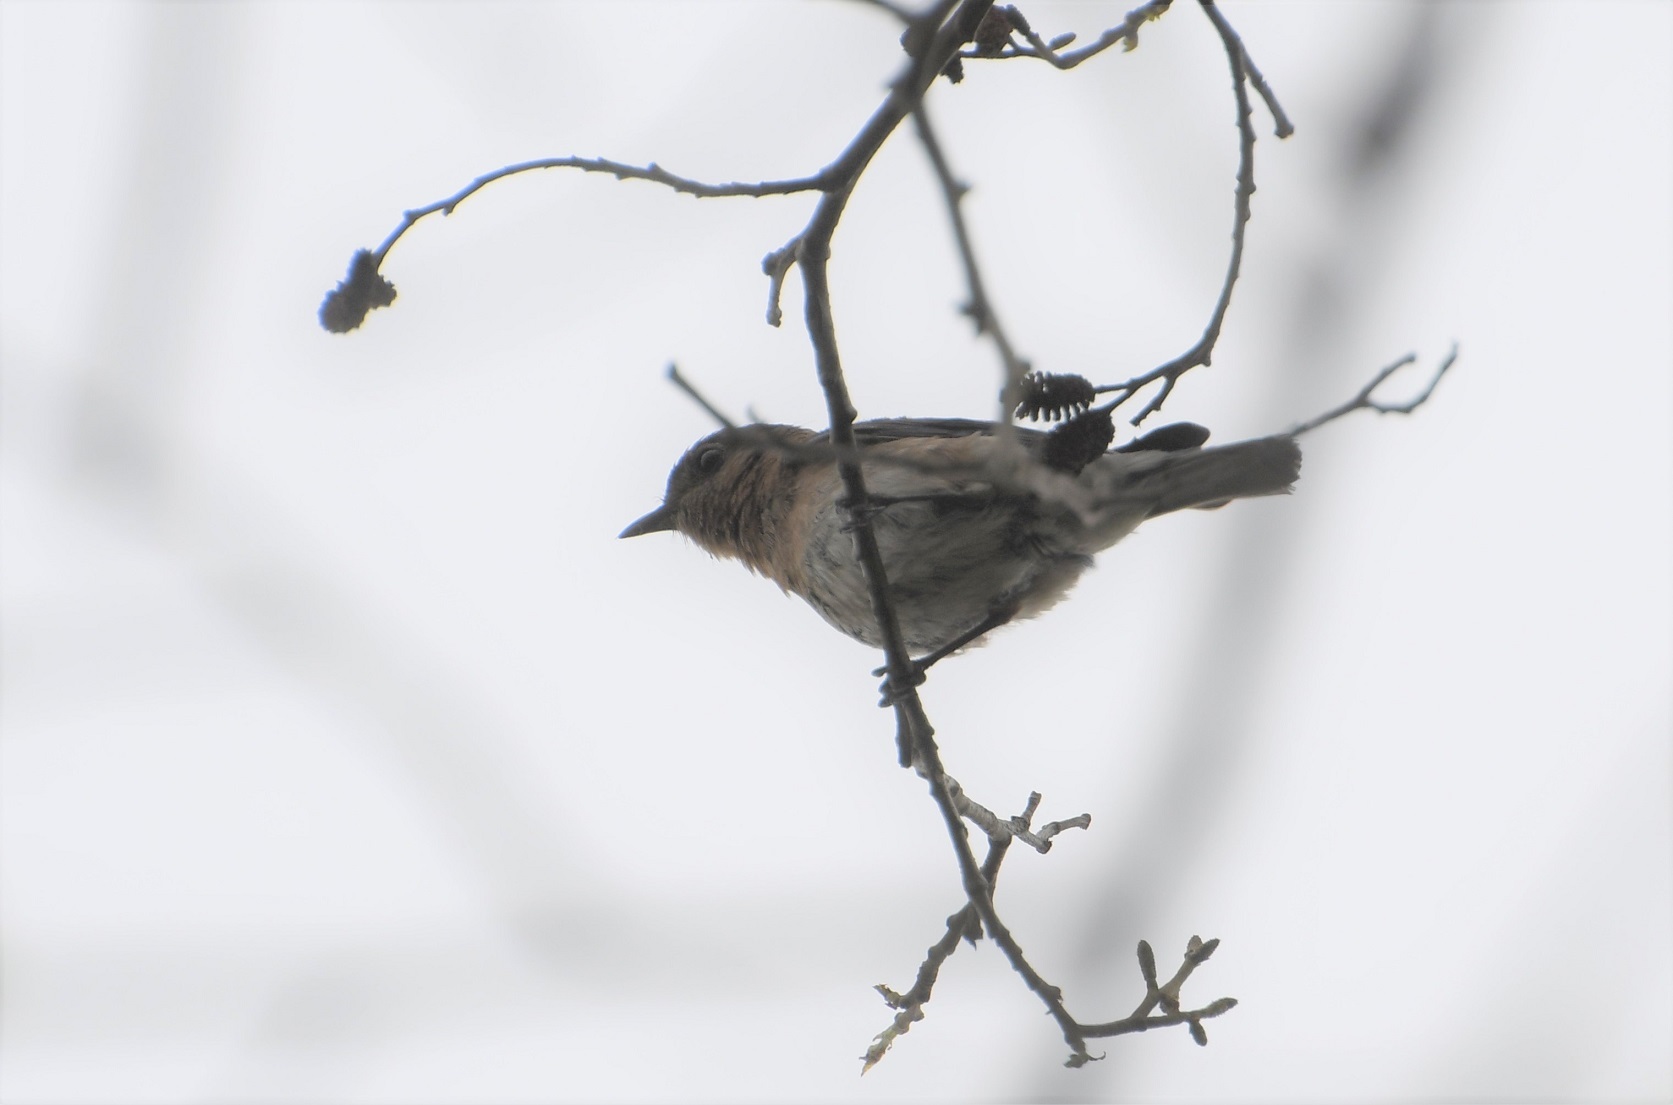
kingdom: Animalia
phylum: Chordata
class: Aves
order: Passeriformes
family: Turdidae
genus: Sialia
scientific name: Sialia sialis
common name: Eastern bluebird
